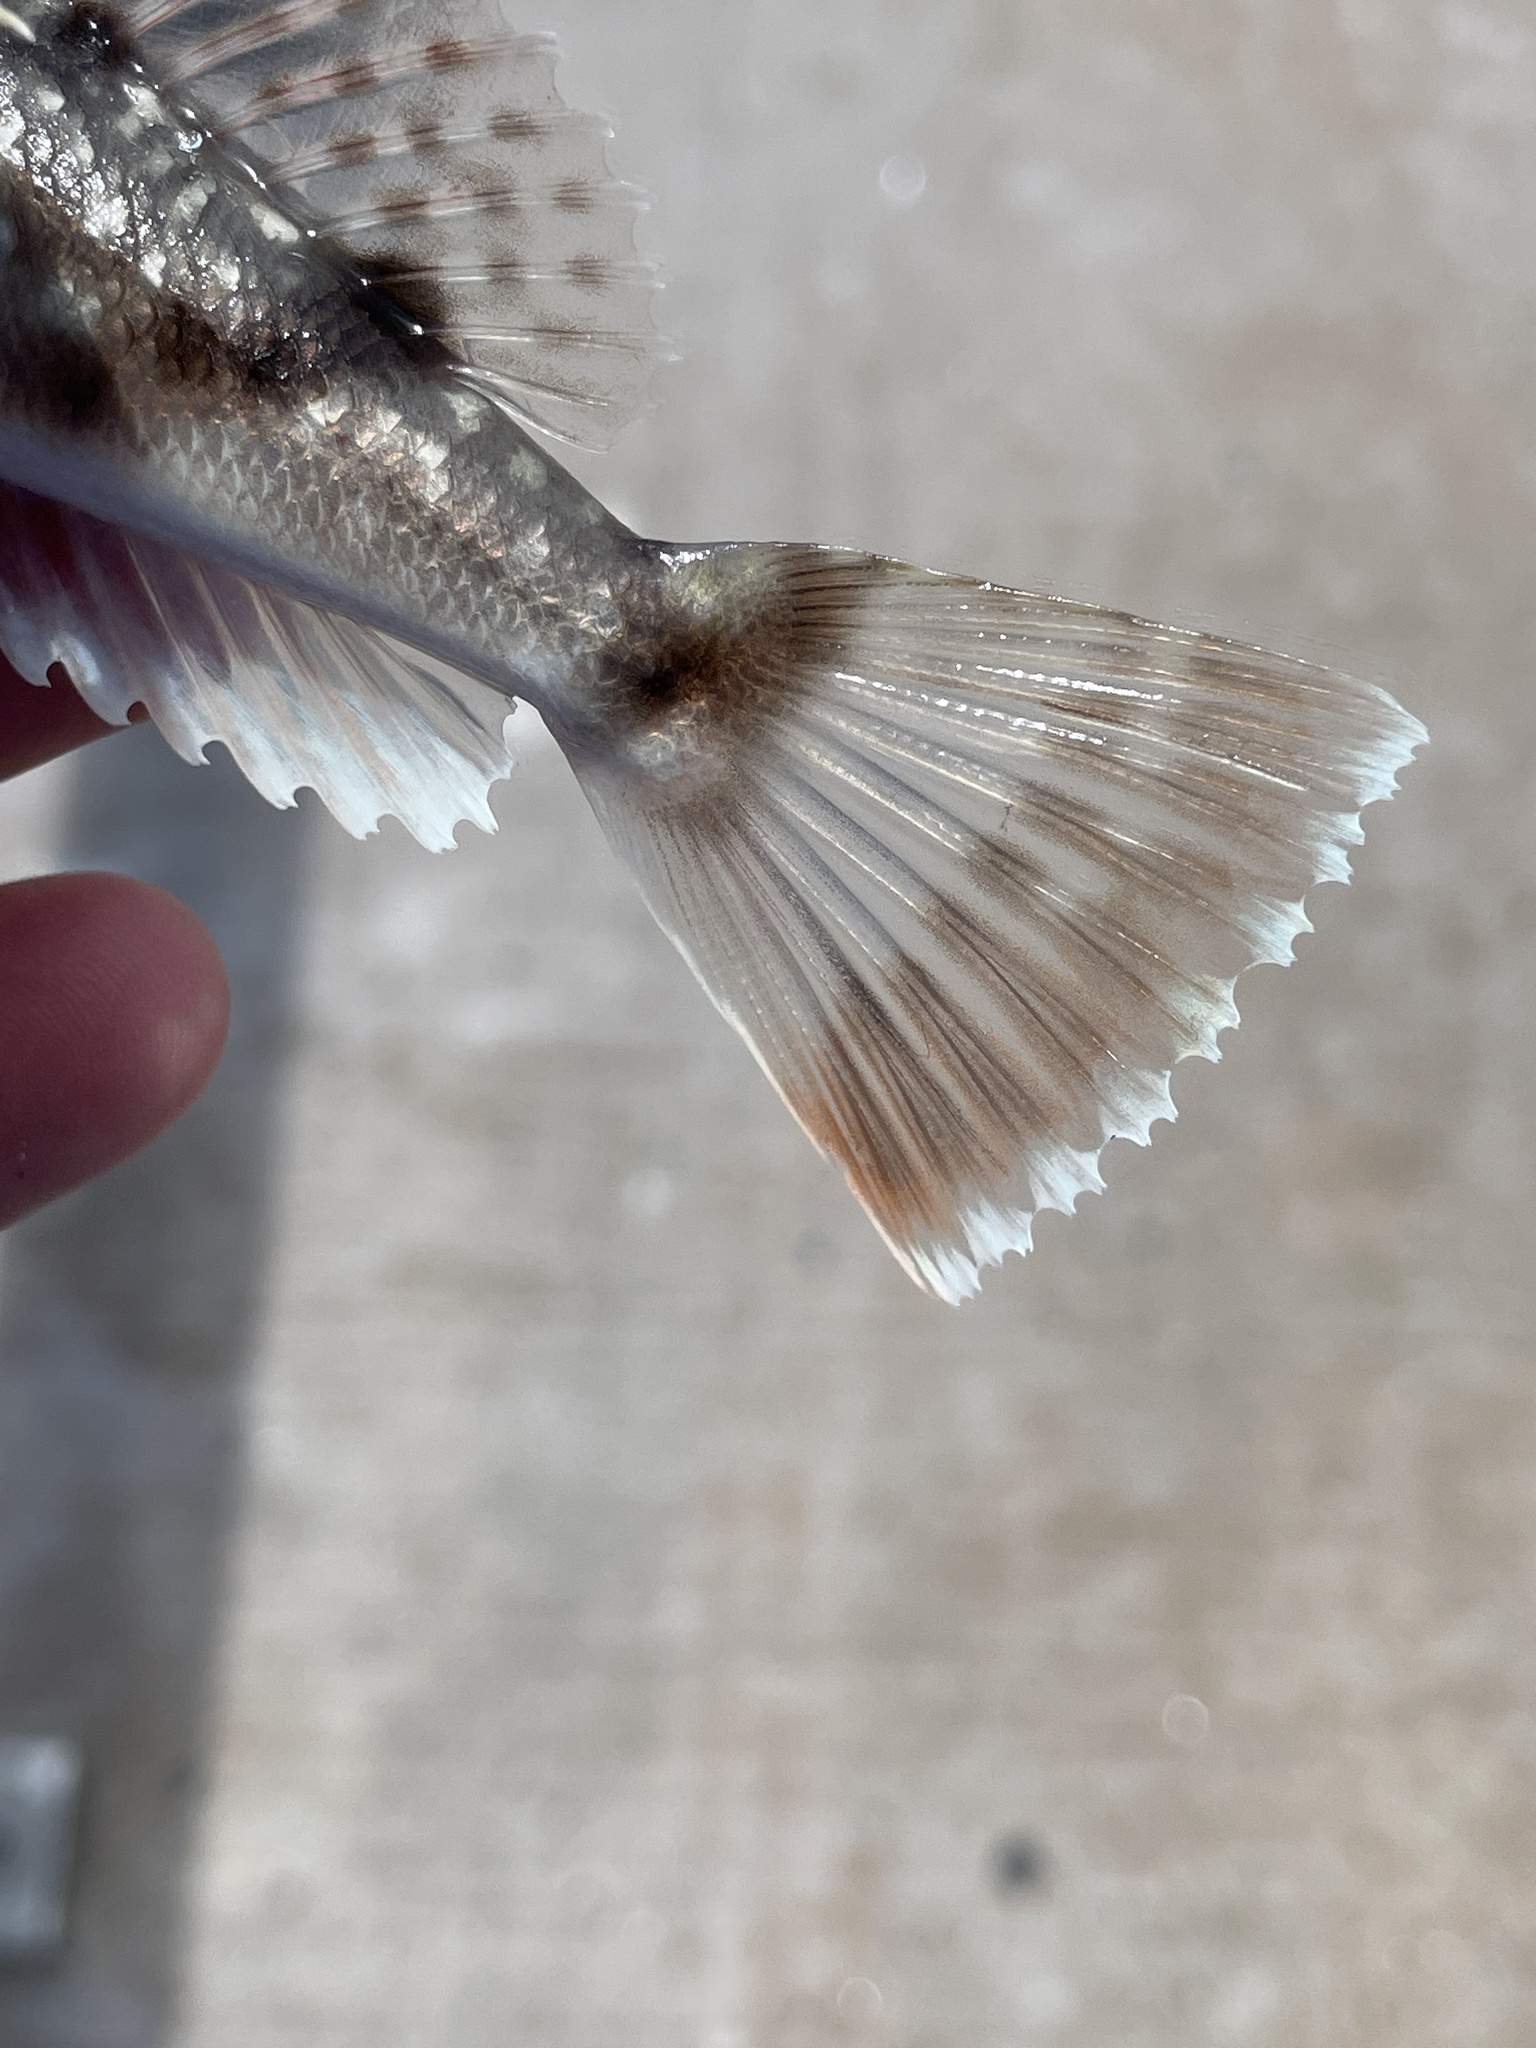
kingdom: Animalia
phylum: Chordata
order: Scorpaeniformes
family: Triglidae
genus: Prionotus
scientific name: Prionotus tribulus
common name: Bighead searobin
